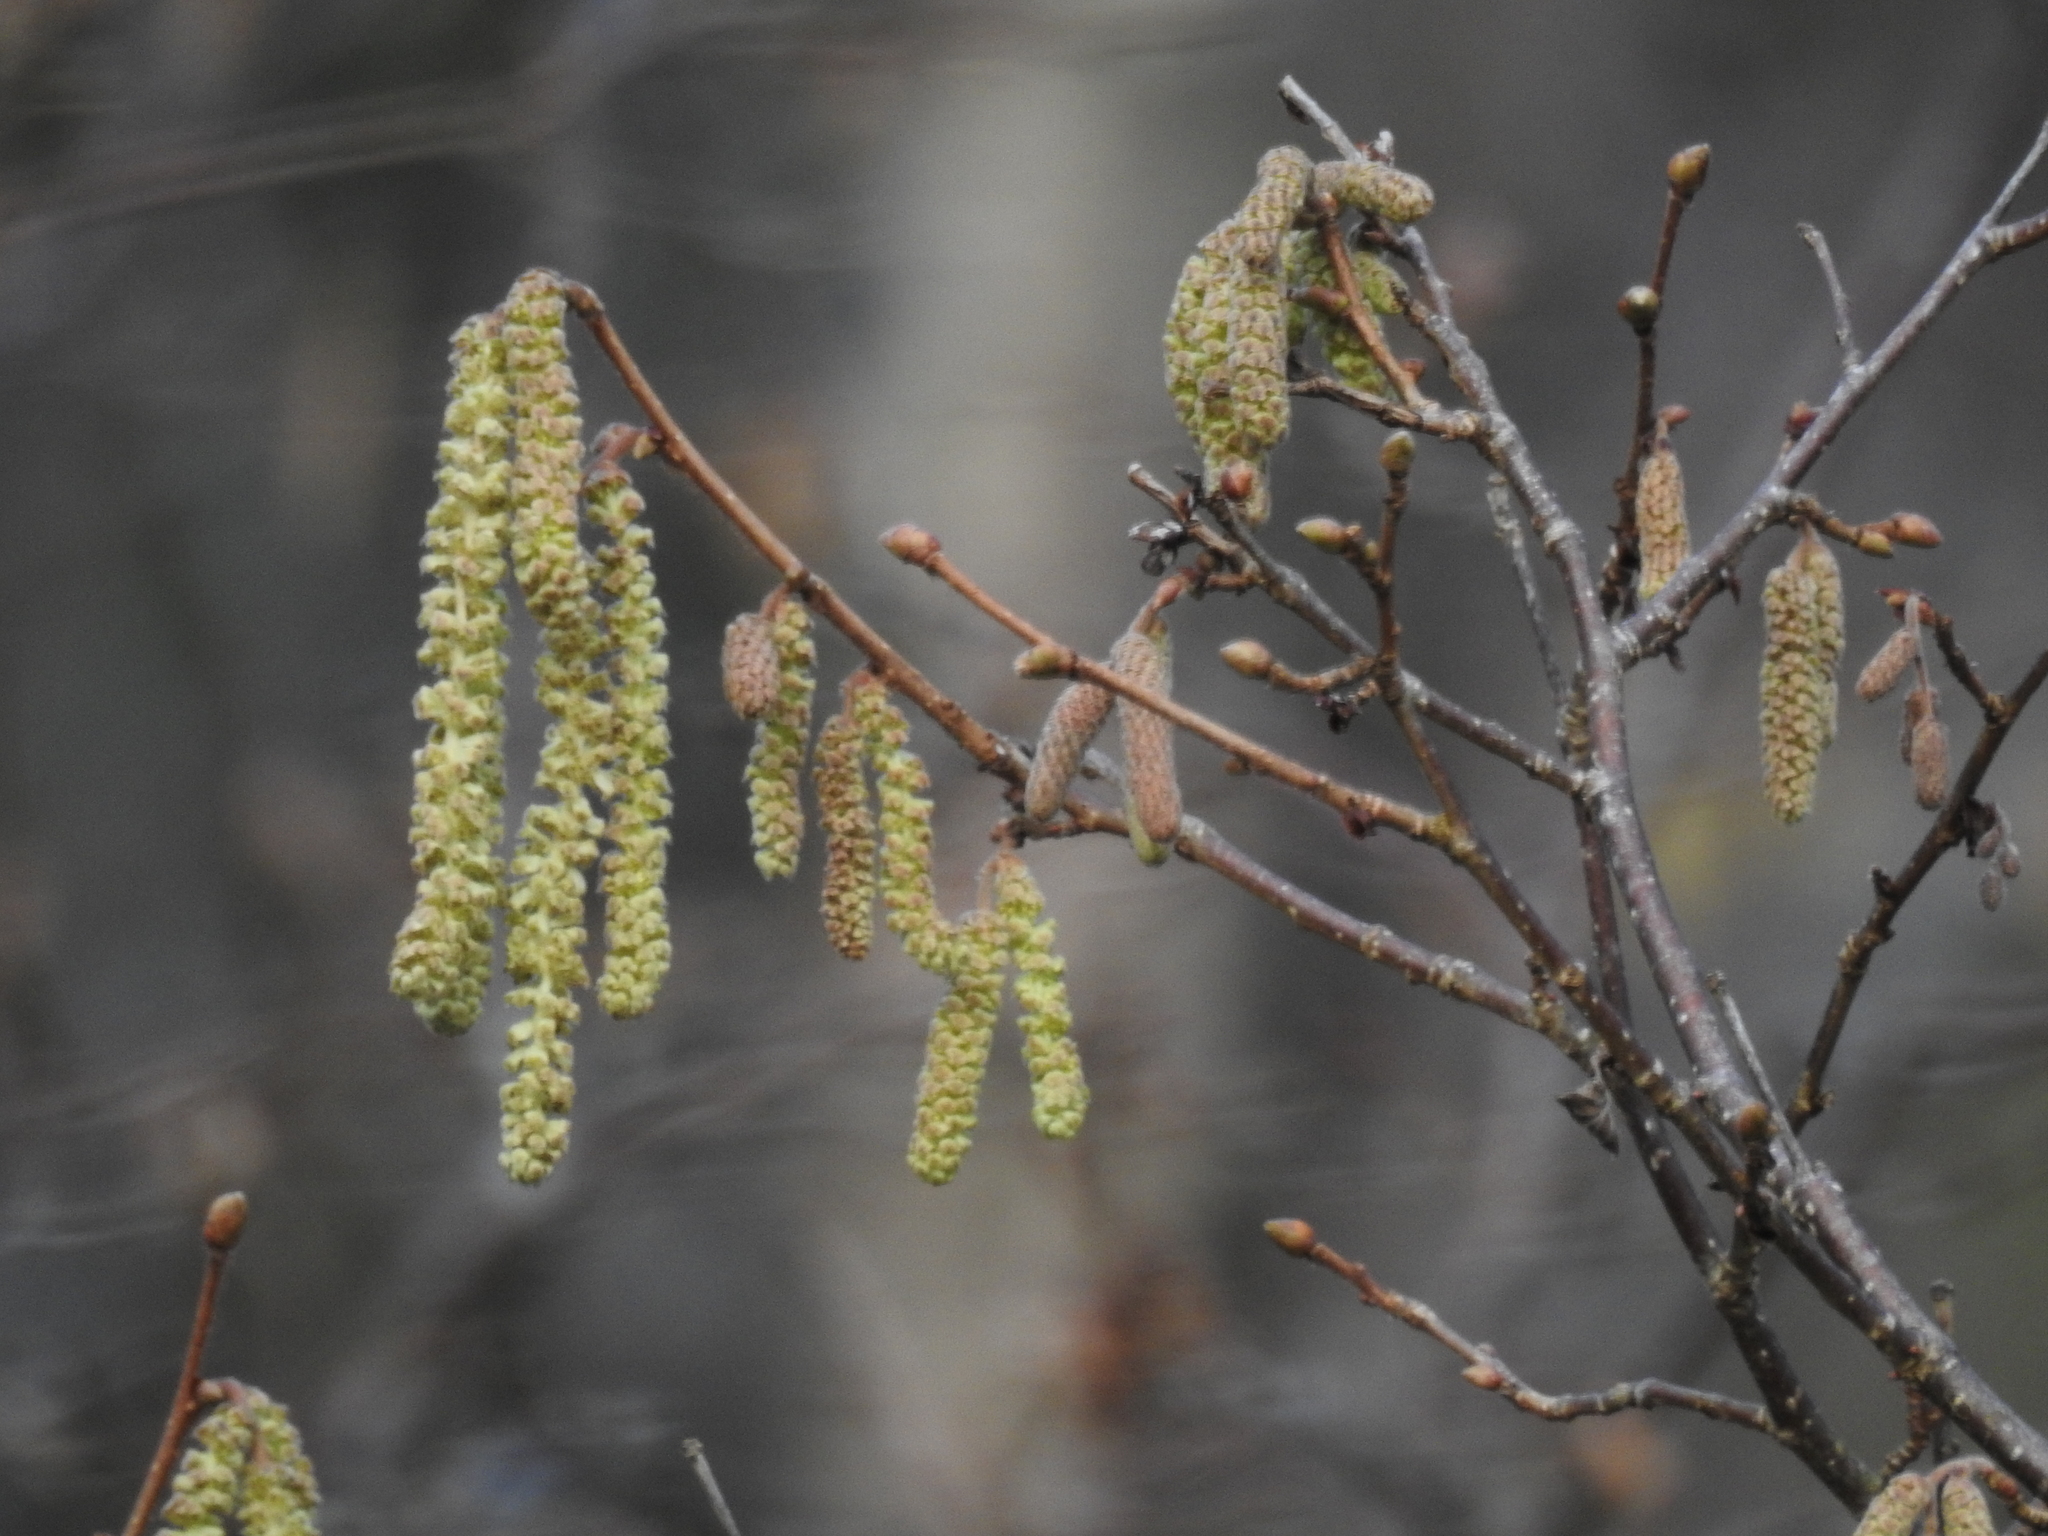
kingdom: Plantae
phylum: Tracheophyta
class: Magnoliopsida
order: Fagales
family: Betulaceae
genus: Corylus
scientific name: Corylus avellana
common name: European hazel
